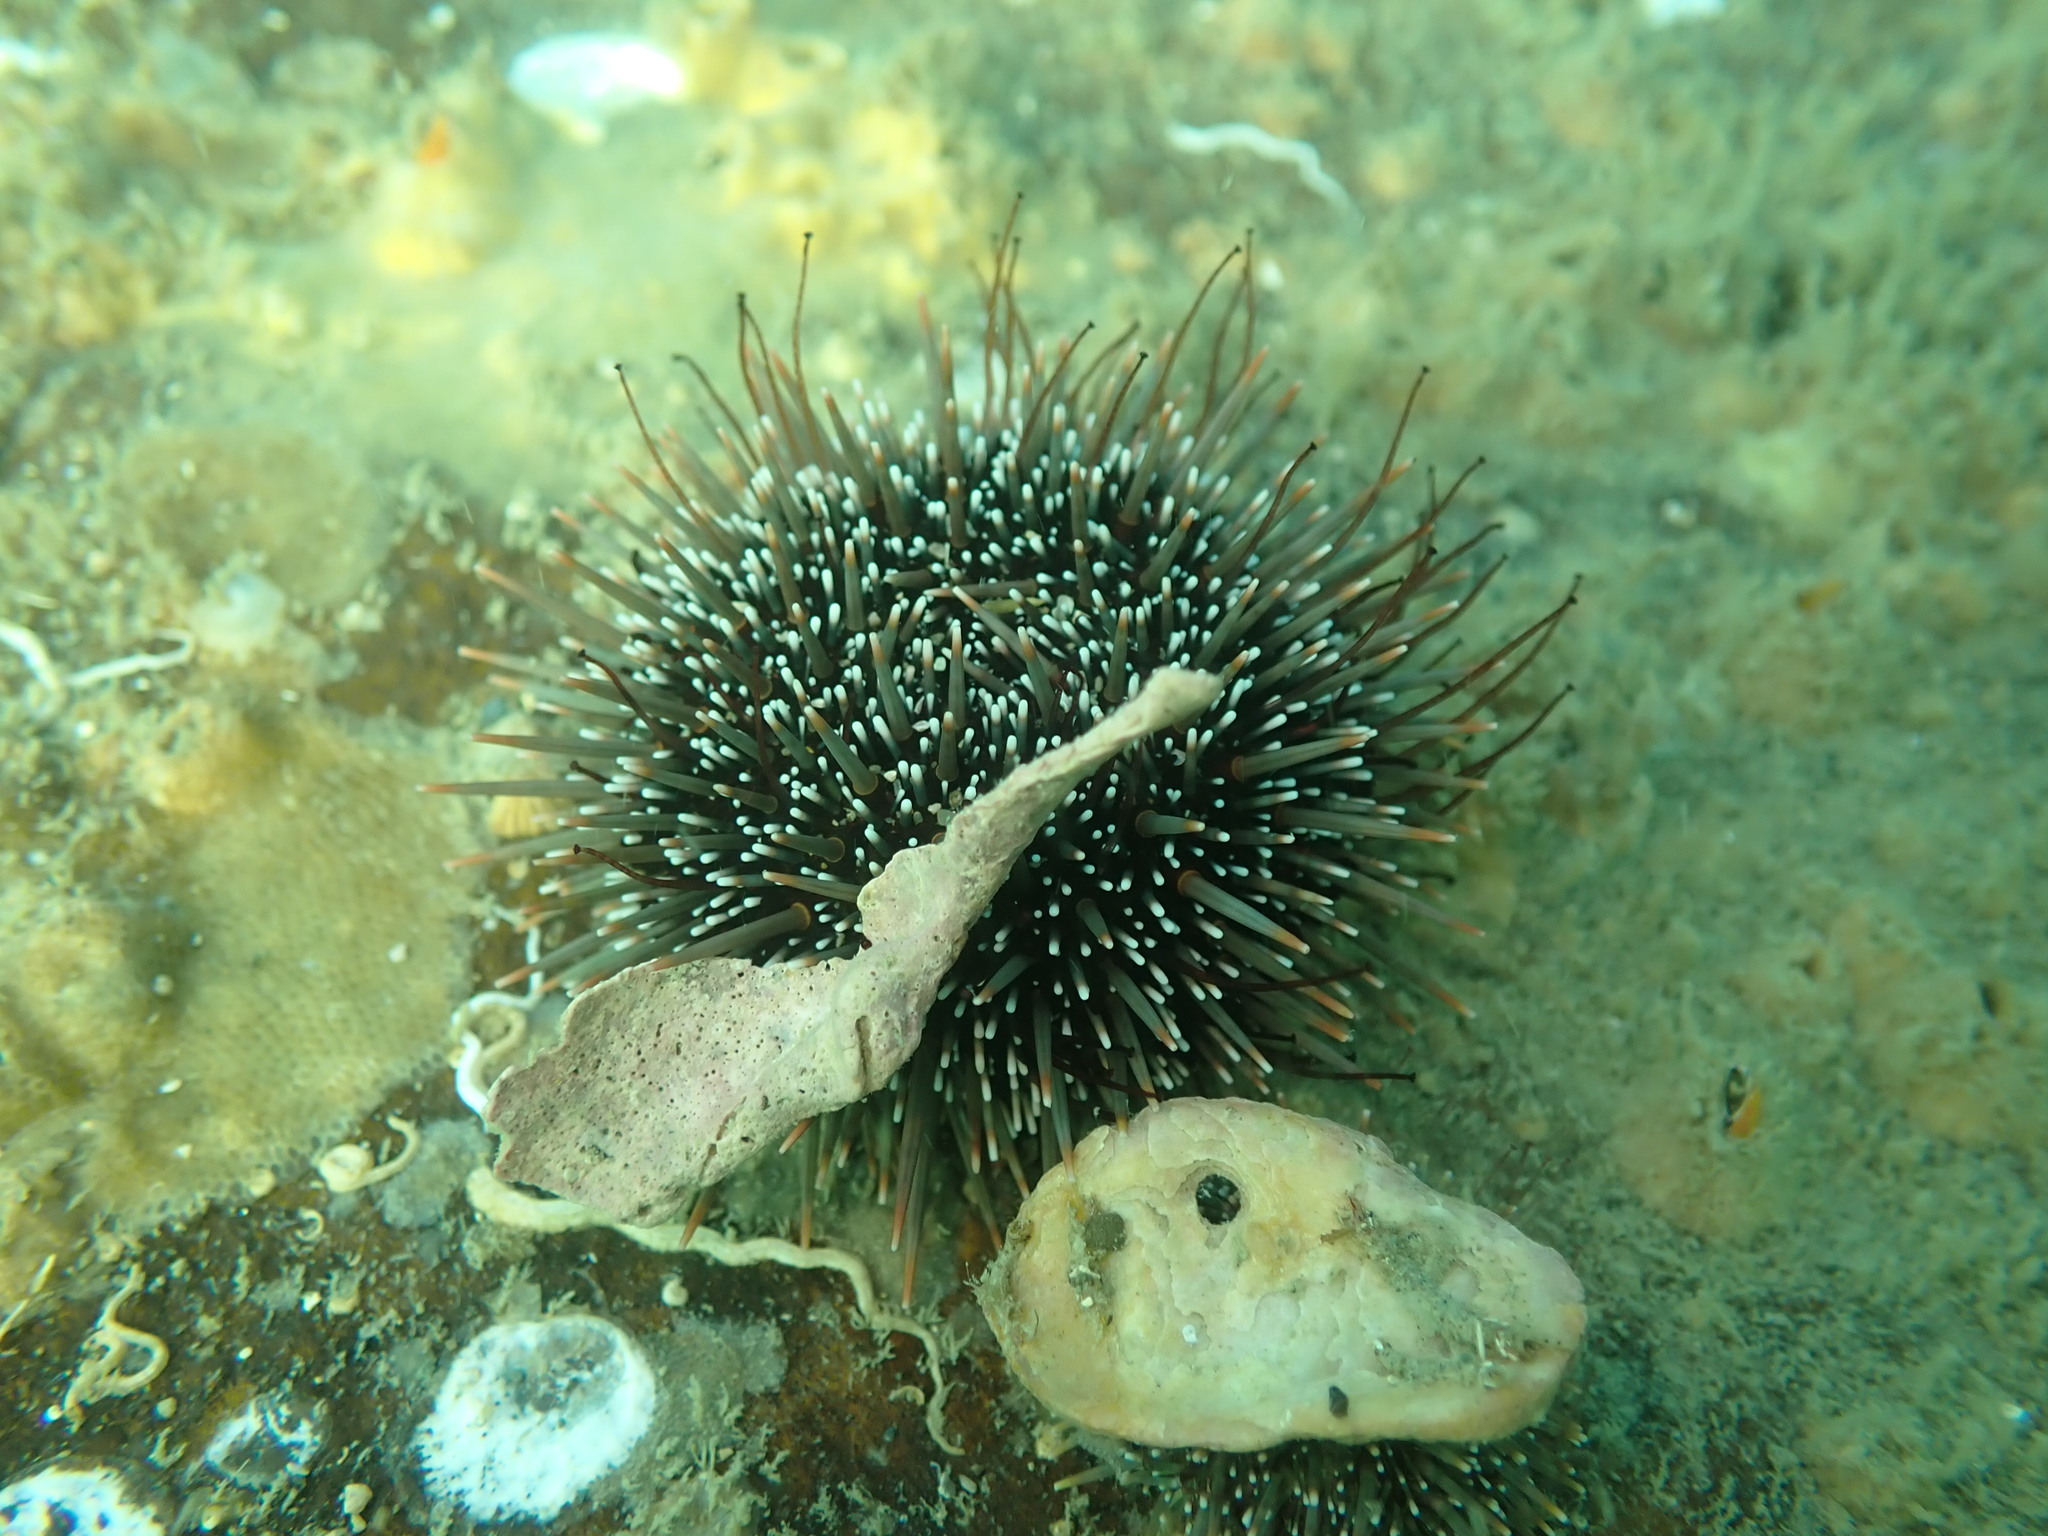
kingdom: Animalia
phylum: Echinodermata
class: Echinoidea
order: Camarodonta
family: Echinometridae
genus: Evechinus
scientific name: Evechinus chloroticus
